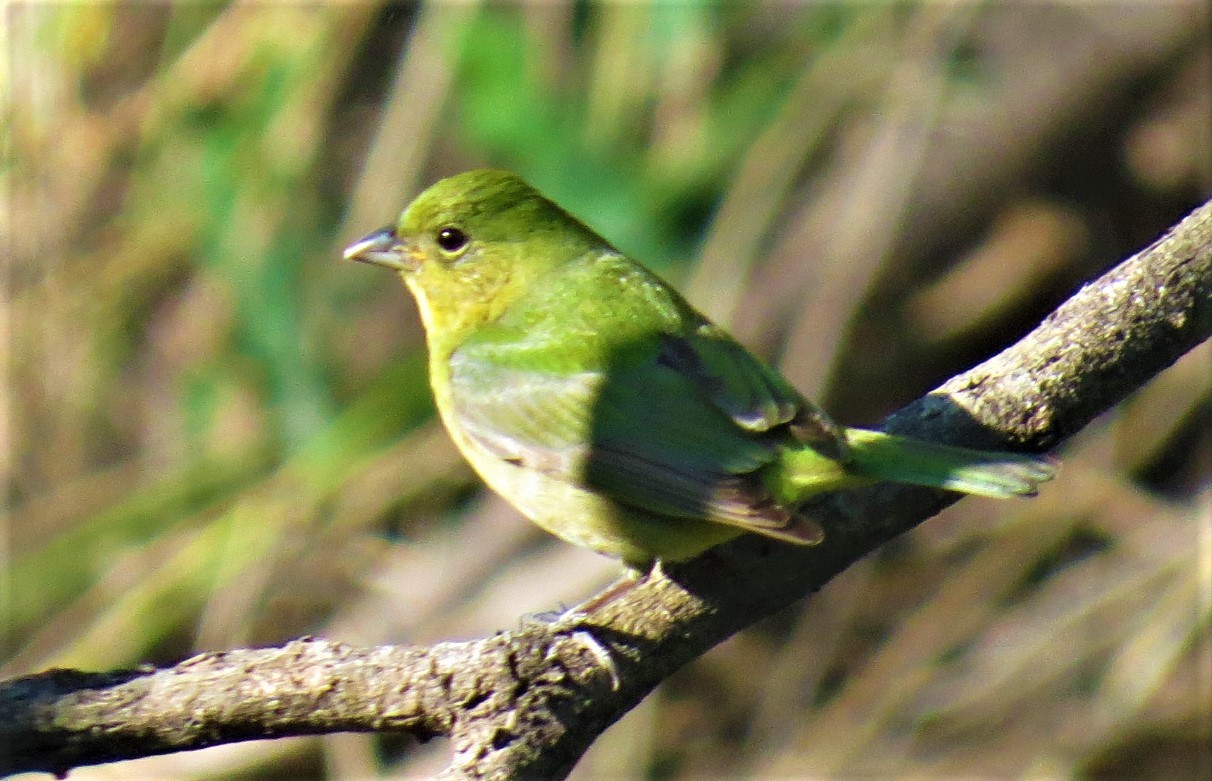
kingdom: Animalia
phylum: Chordata
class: Aves
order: Passeriformes
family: Cardinalidae
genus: Passerina
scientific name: Passerina ciris
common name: Painted bunting
